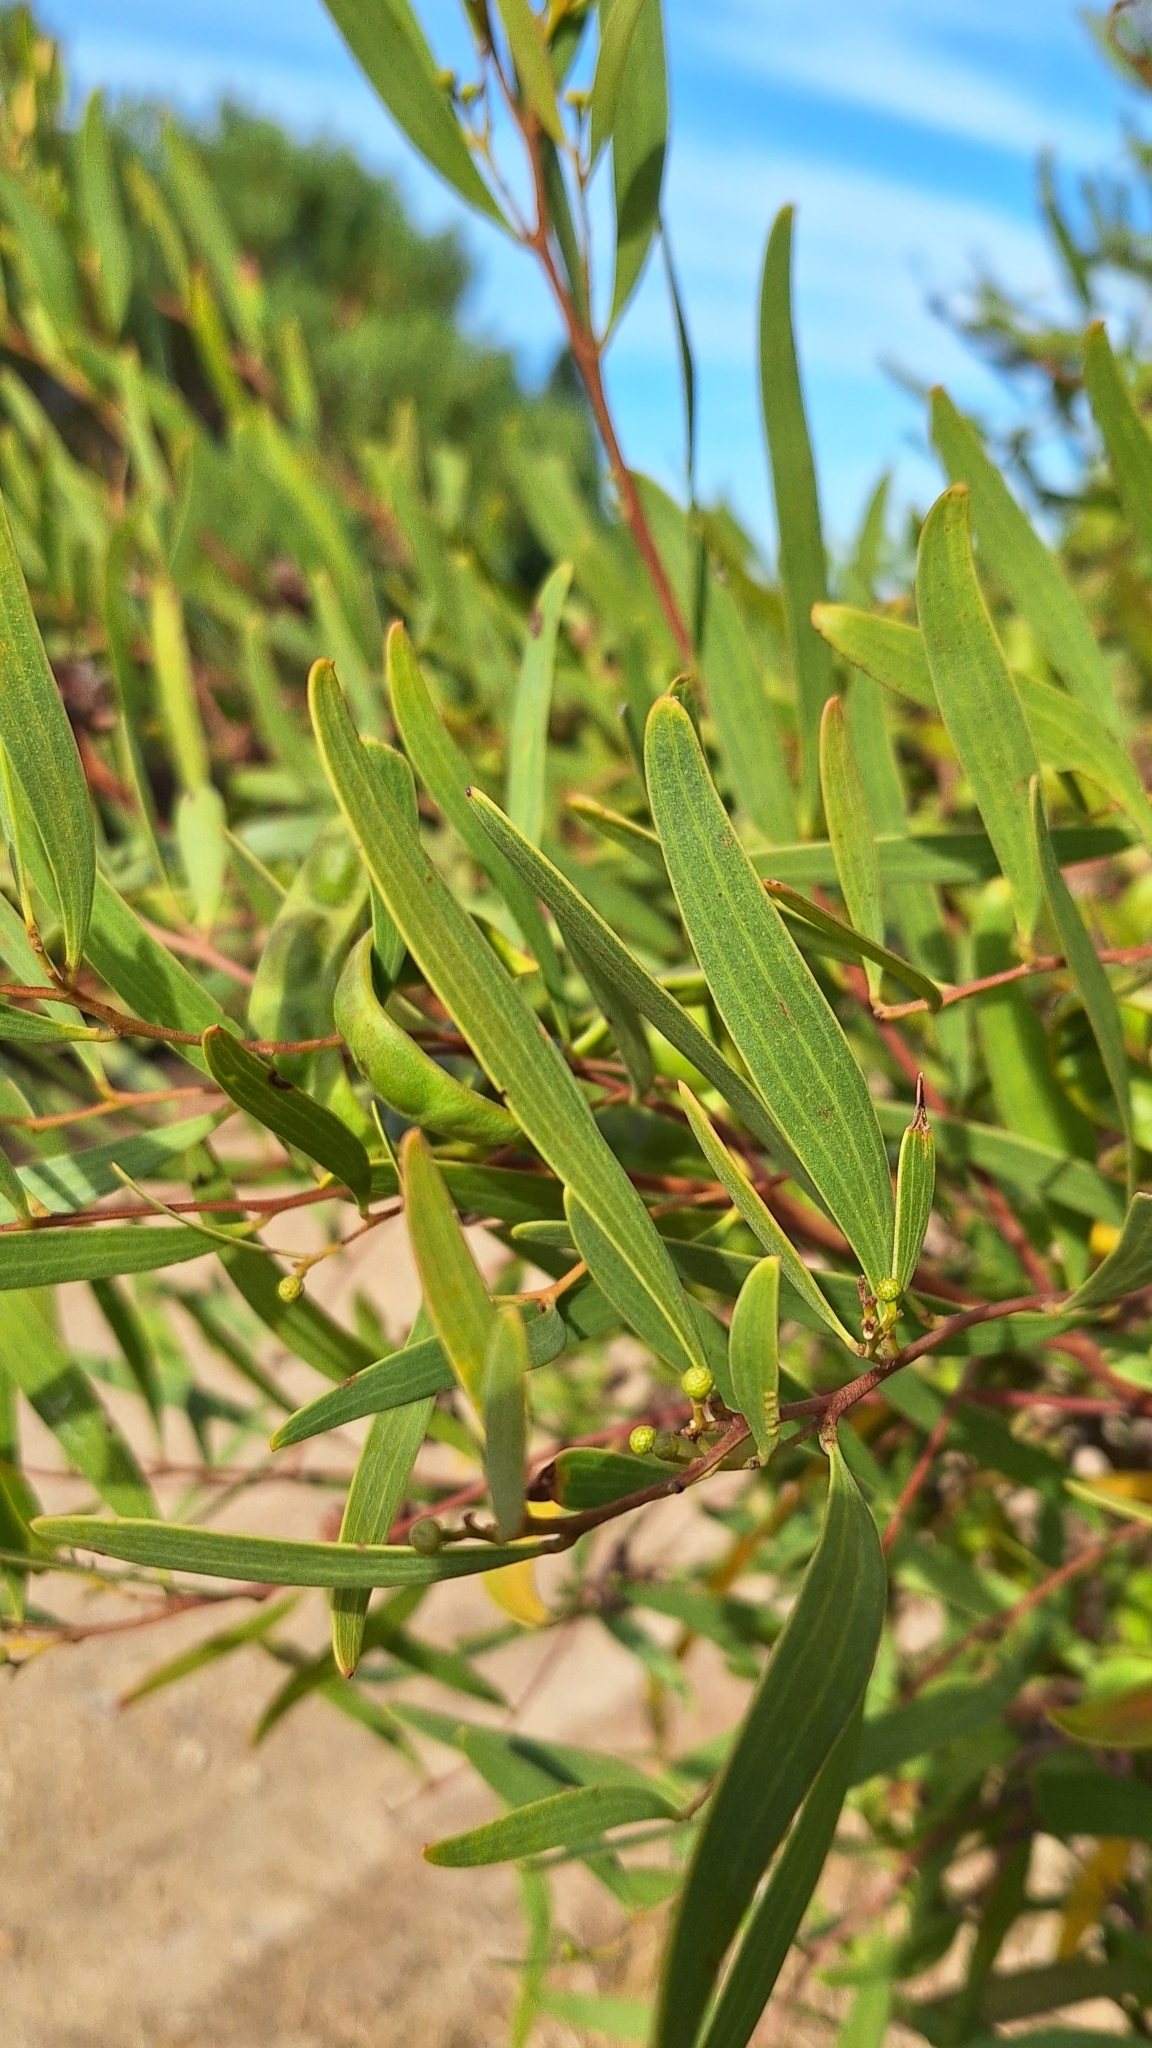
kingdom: Plantae
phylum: Tracheophyta
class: Magnoliopsida
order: Fabales
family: Fabaceae
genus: Acacia
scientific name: Acacia cyclops
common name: Coastal wattle
